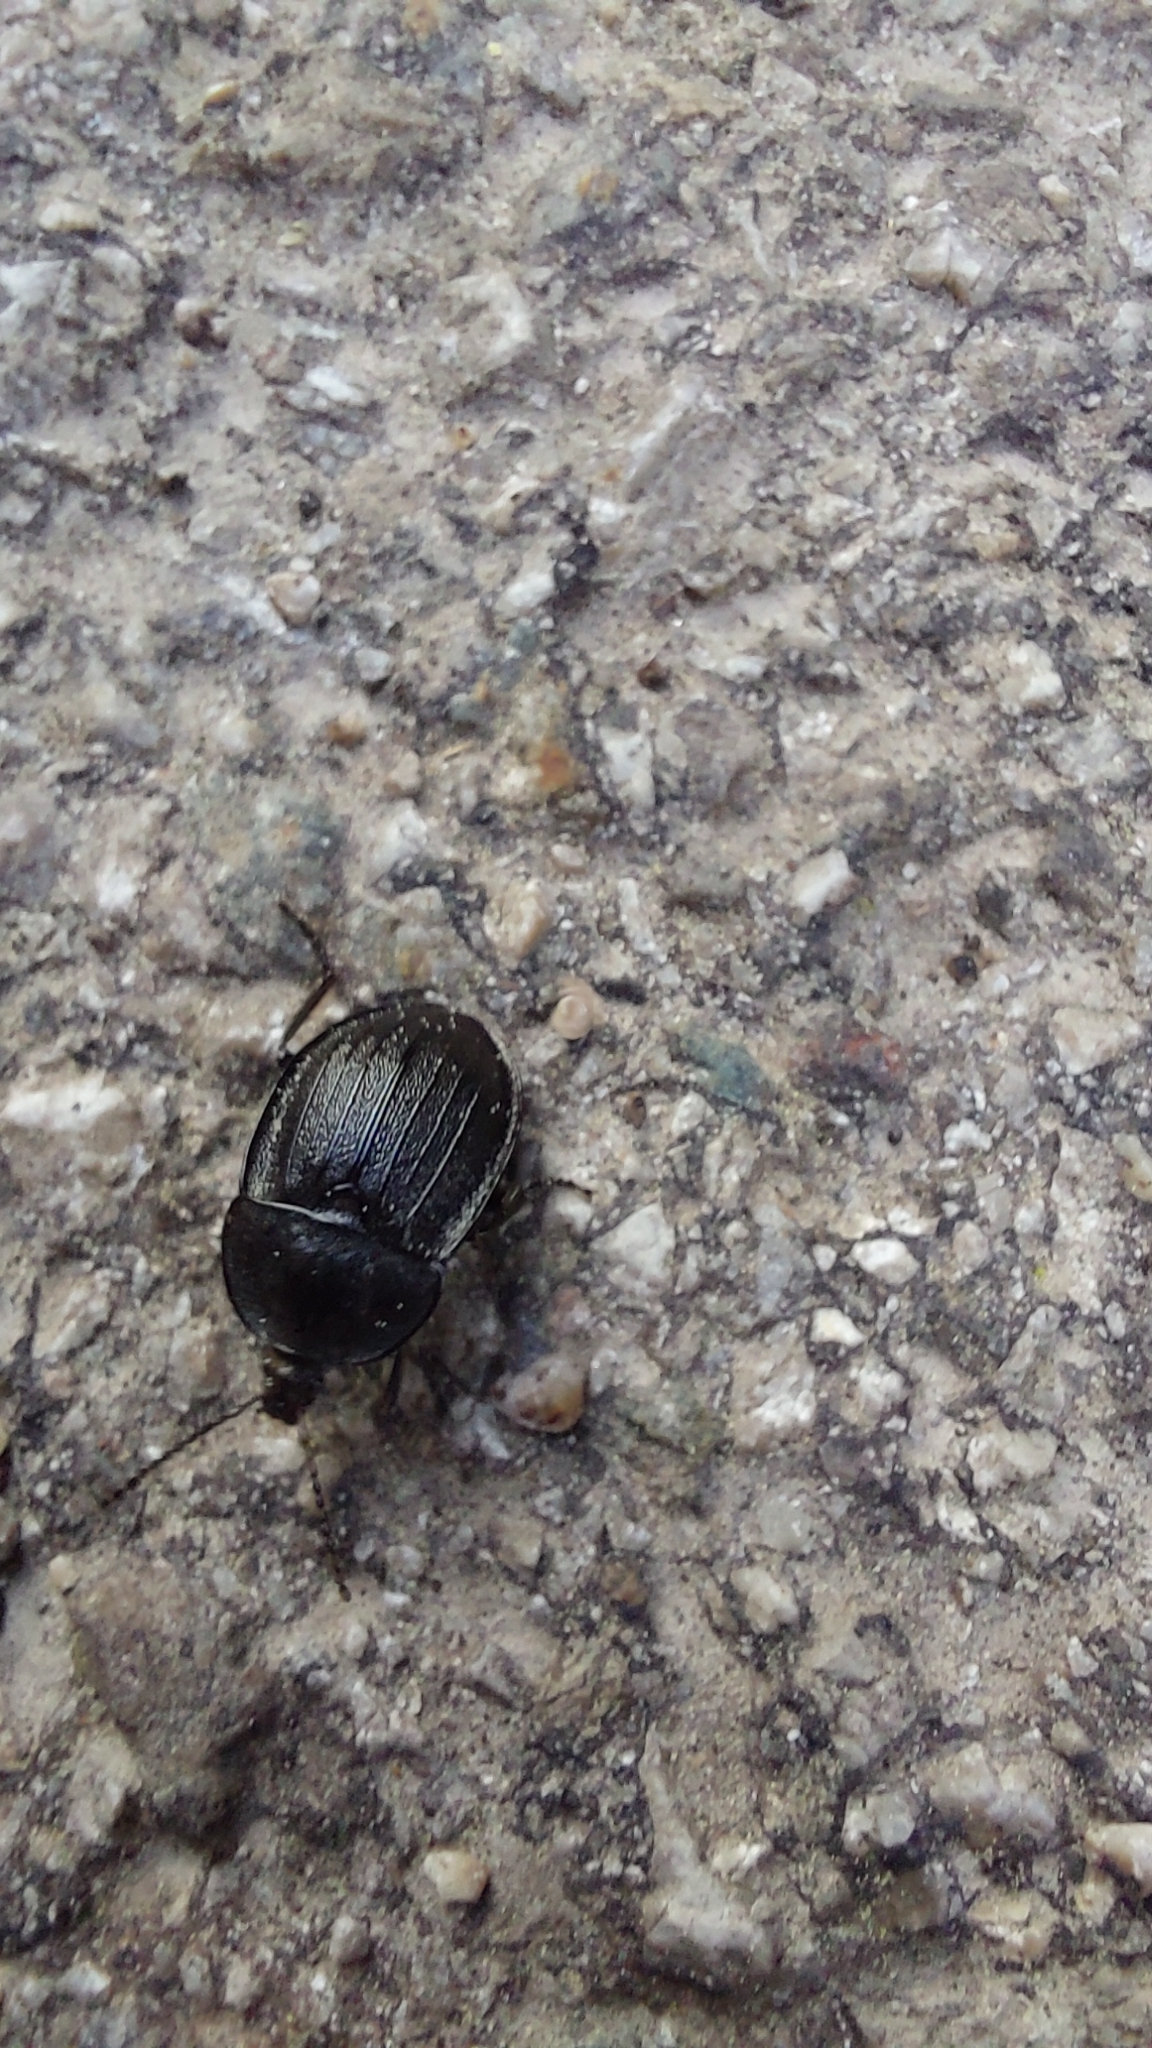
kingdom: Animalia
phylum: Arthropoda
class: Insecta
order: Coleoptera
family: Staphylinidae
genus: Silpha
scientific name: Silpha atrata
